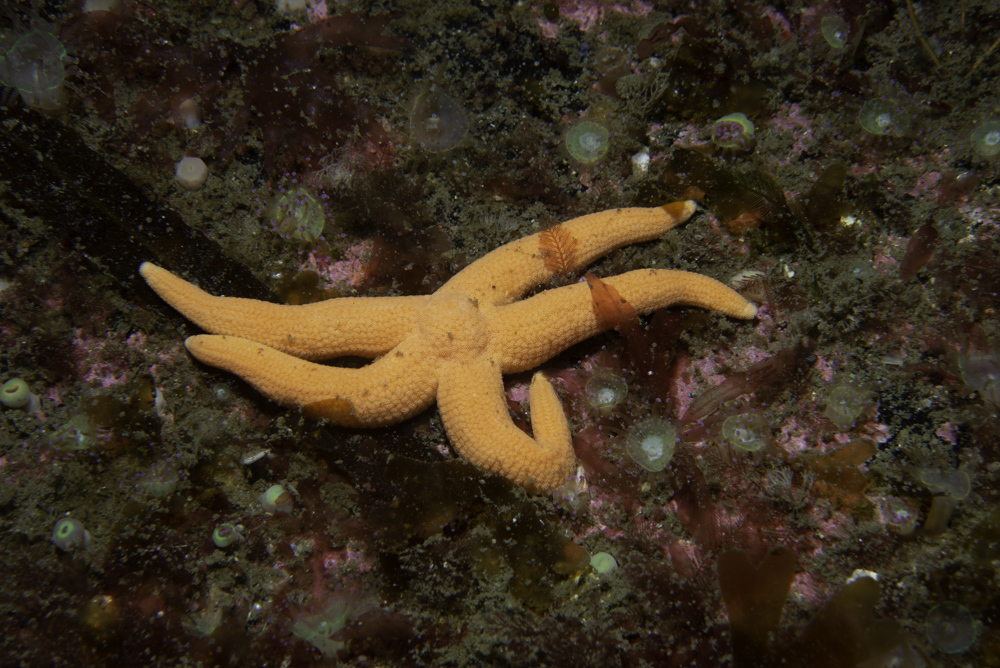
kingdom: Animalia
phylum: Echinodermata
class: Asteroidea
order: Forcipulatida
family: Stichasteridae
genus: Stichastrella
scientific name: Stichastrella rosea
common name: Rosy starfish
